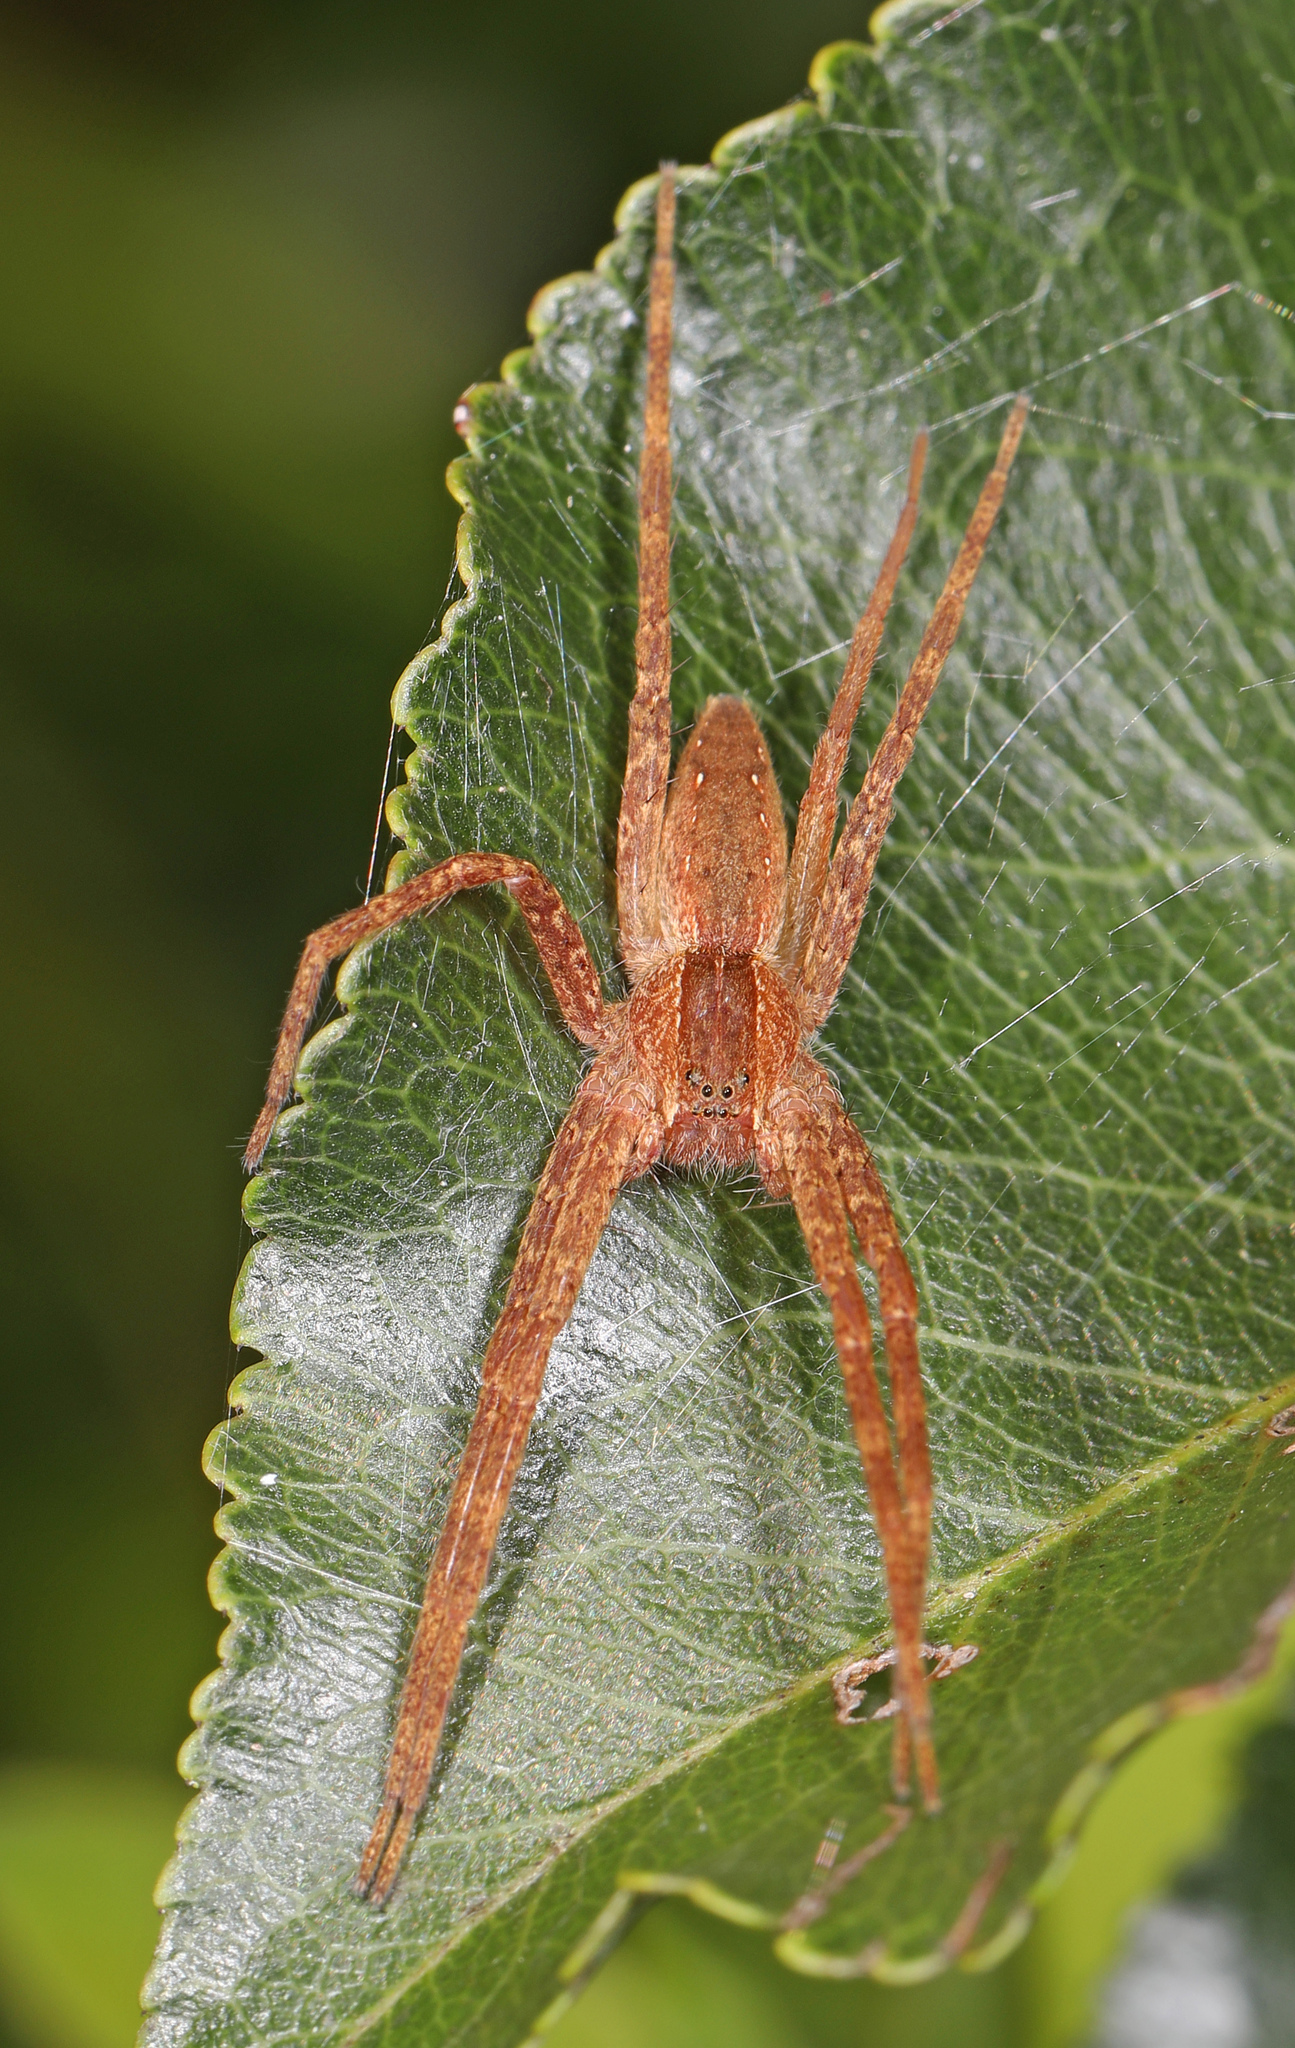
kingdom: Animalia
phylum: Arthropoda
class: Arachnida
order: Araneae
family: Pisauridae
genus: Pisaurina
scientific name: Pisaurina mira
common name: American nursery web spider
